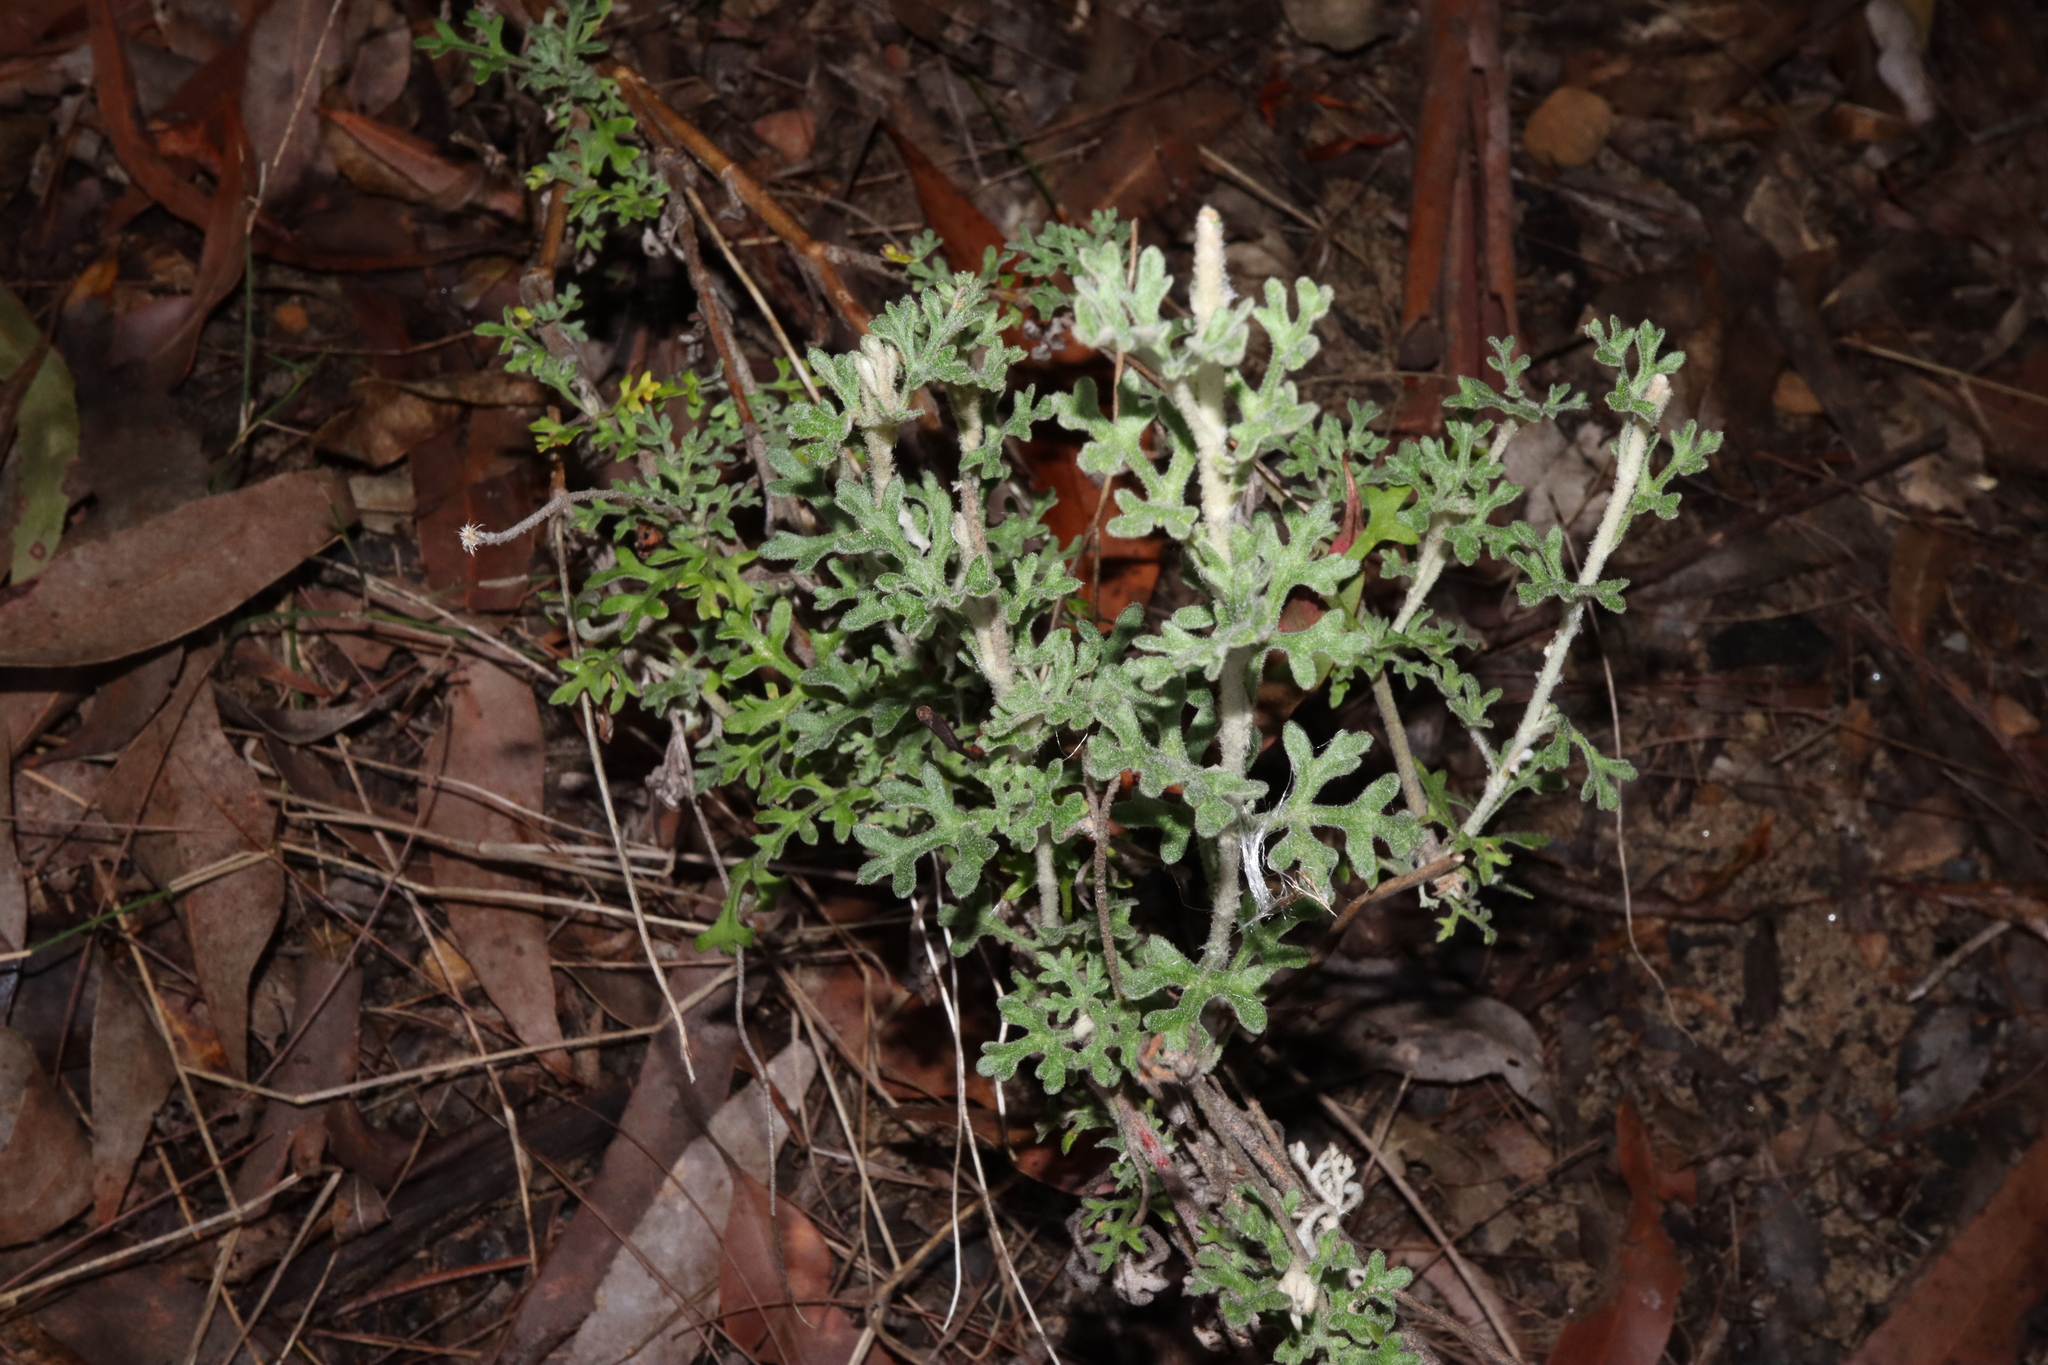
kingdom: Plantae
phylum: Tracheophyta
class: Magnoliopsida
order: Apiales
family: Apiaceae
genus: Actinotus
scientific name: Actinotus helianthi
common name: Flannel-flower
